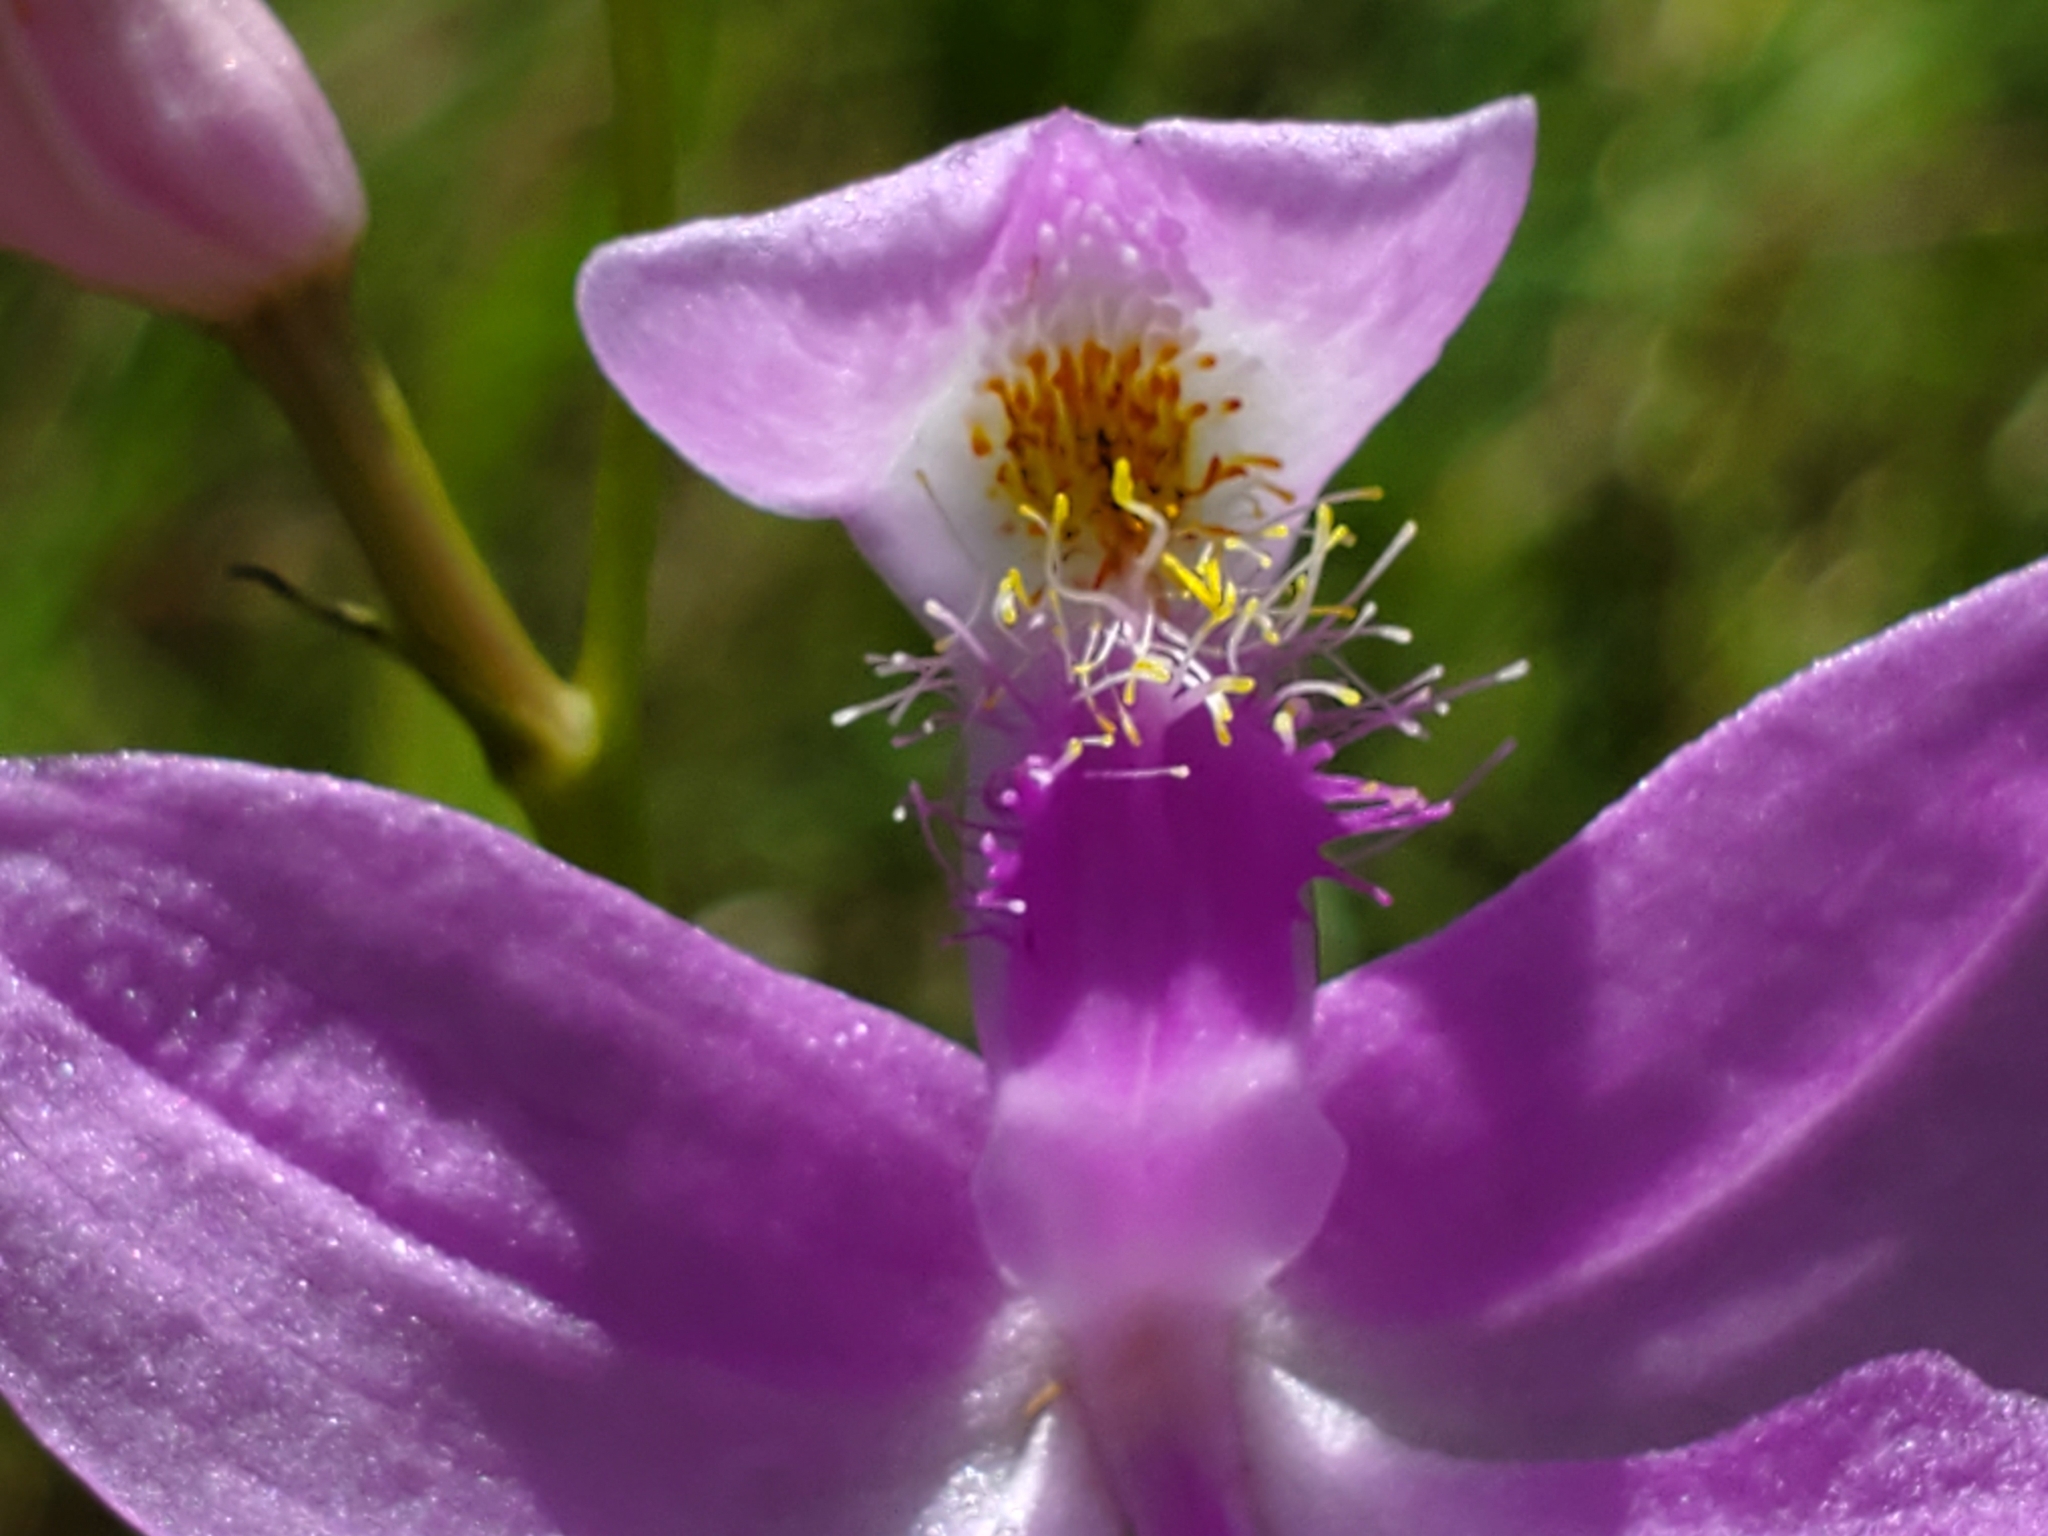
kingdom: Plantae
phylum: Tracheophyta
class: Liliopsida
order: Asparagales
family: Orchidaceae
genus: Calopogon
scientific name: Calopogon tuberosus
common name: Grass-pink
